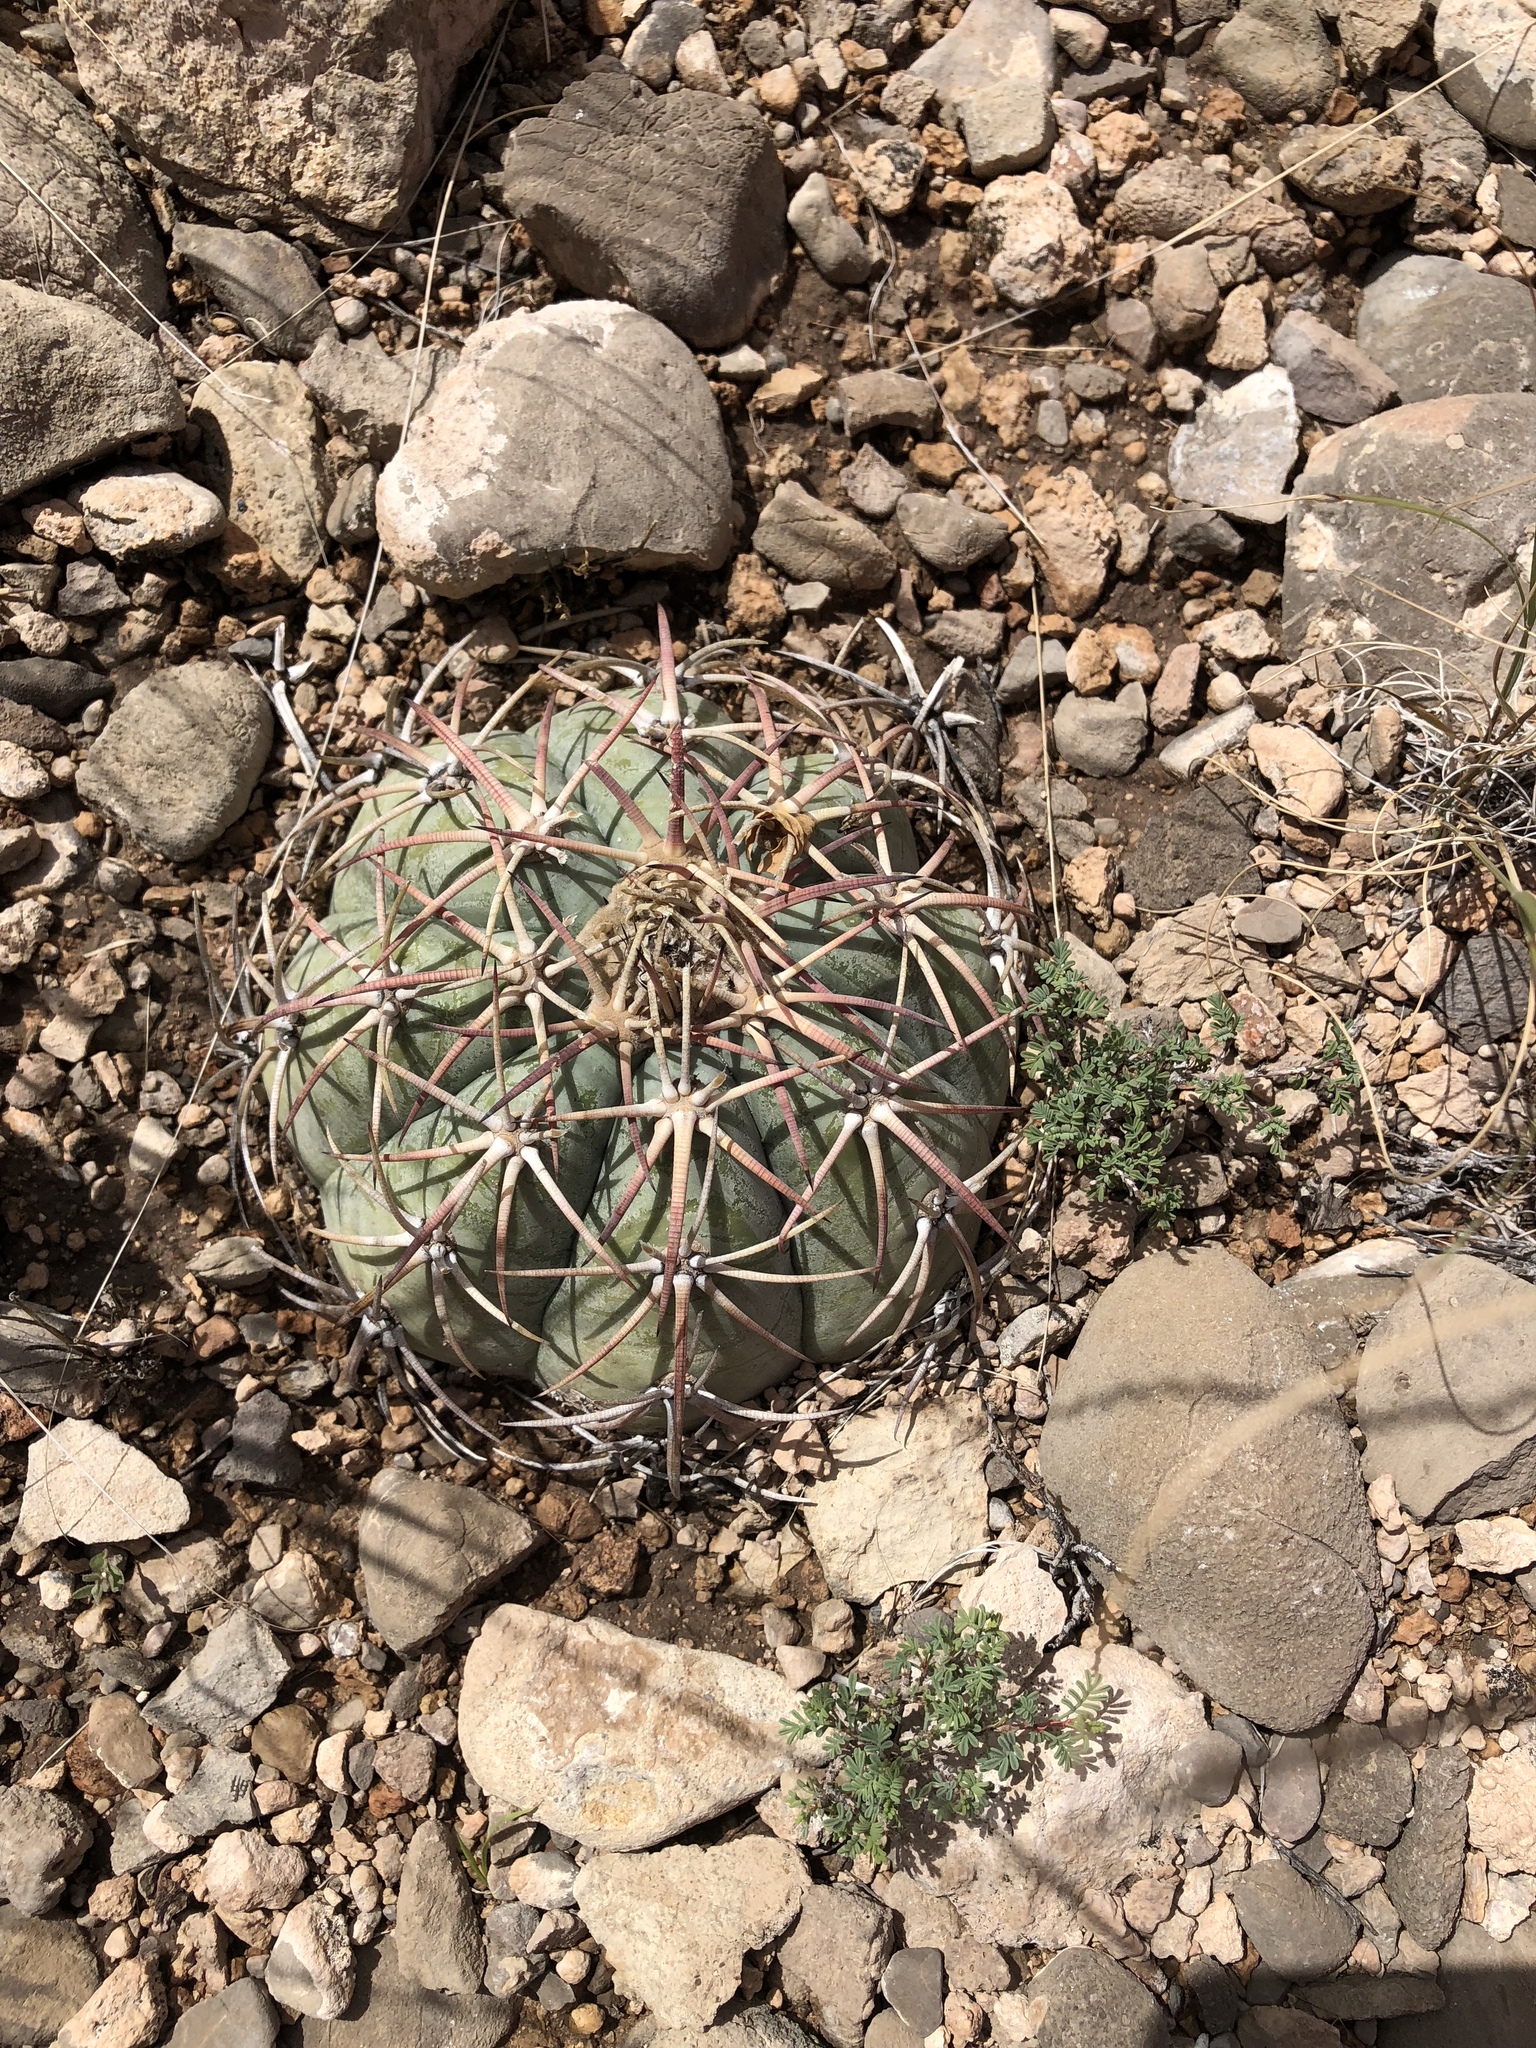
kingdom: Plantae
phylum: Tracheophyta
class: Magnoliopsida
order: Caryophyllales
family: Cactaceae
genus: Echinocactus
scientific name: Echinocactus horizonthalonius
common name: Devilshead
